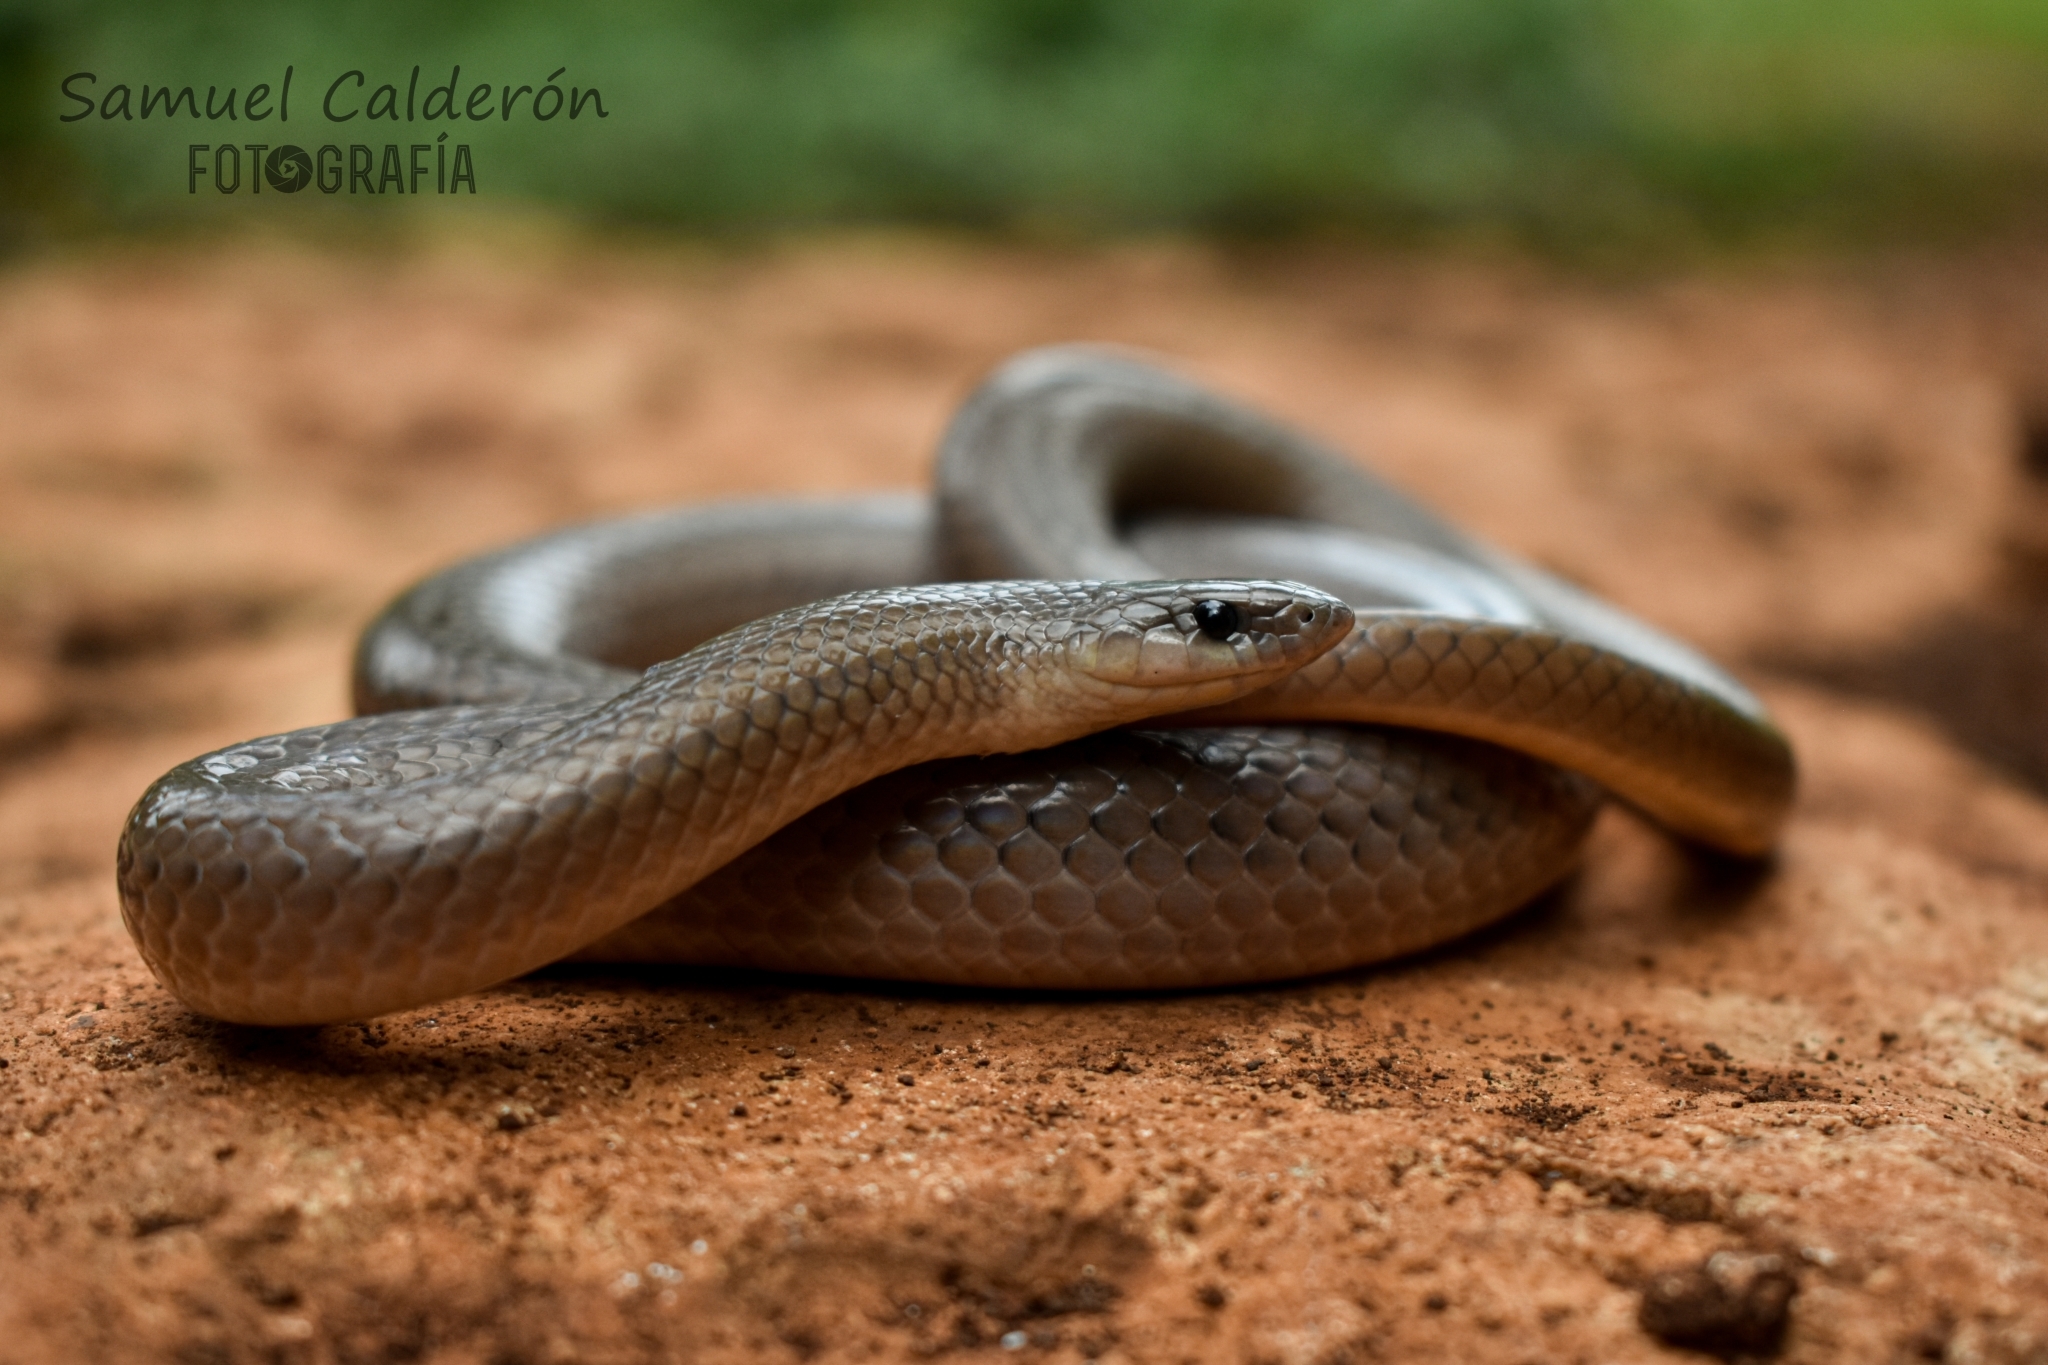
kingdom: Animalia
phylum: Chordata
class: Squamata
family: Colubridae
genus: Stenorrhina
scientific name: Stenorrhina freminvillei
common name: Blood snake
